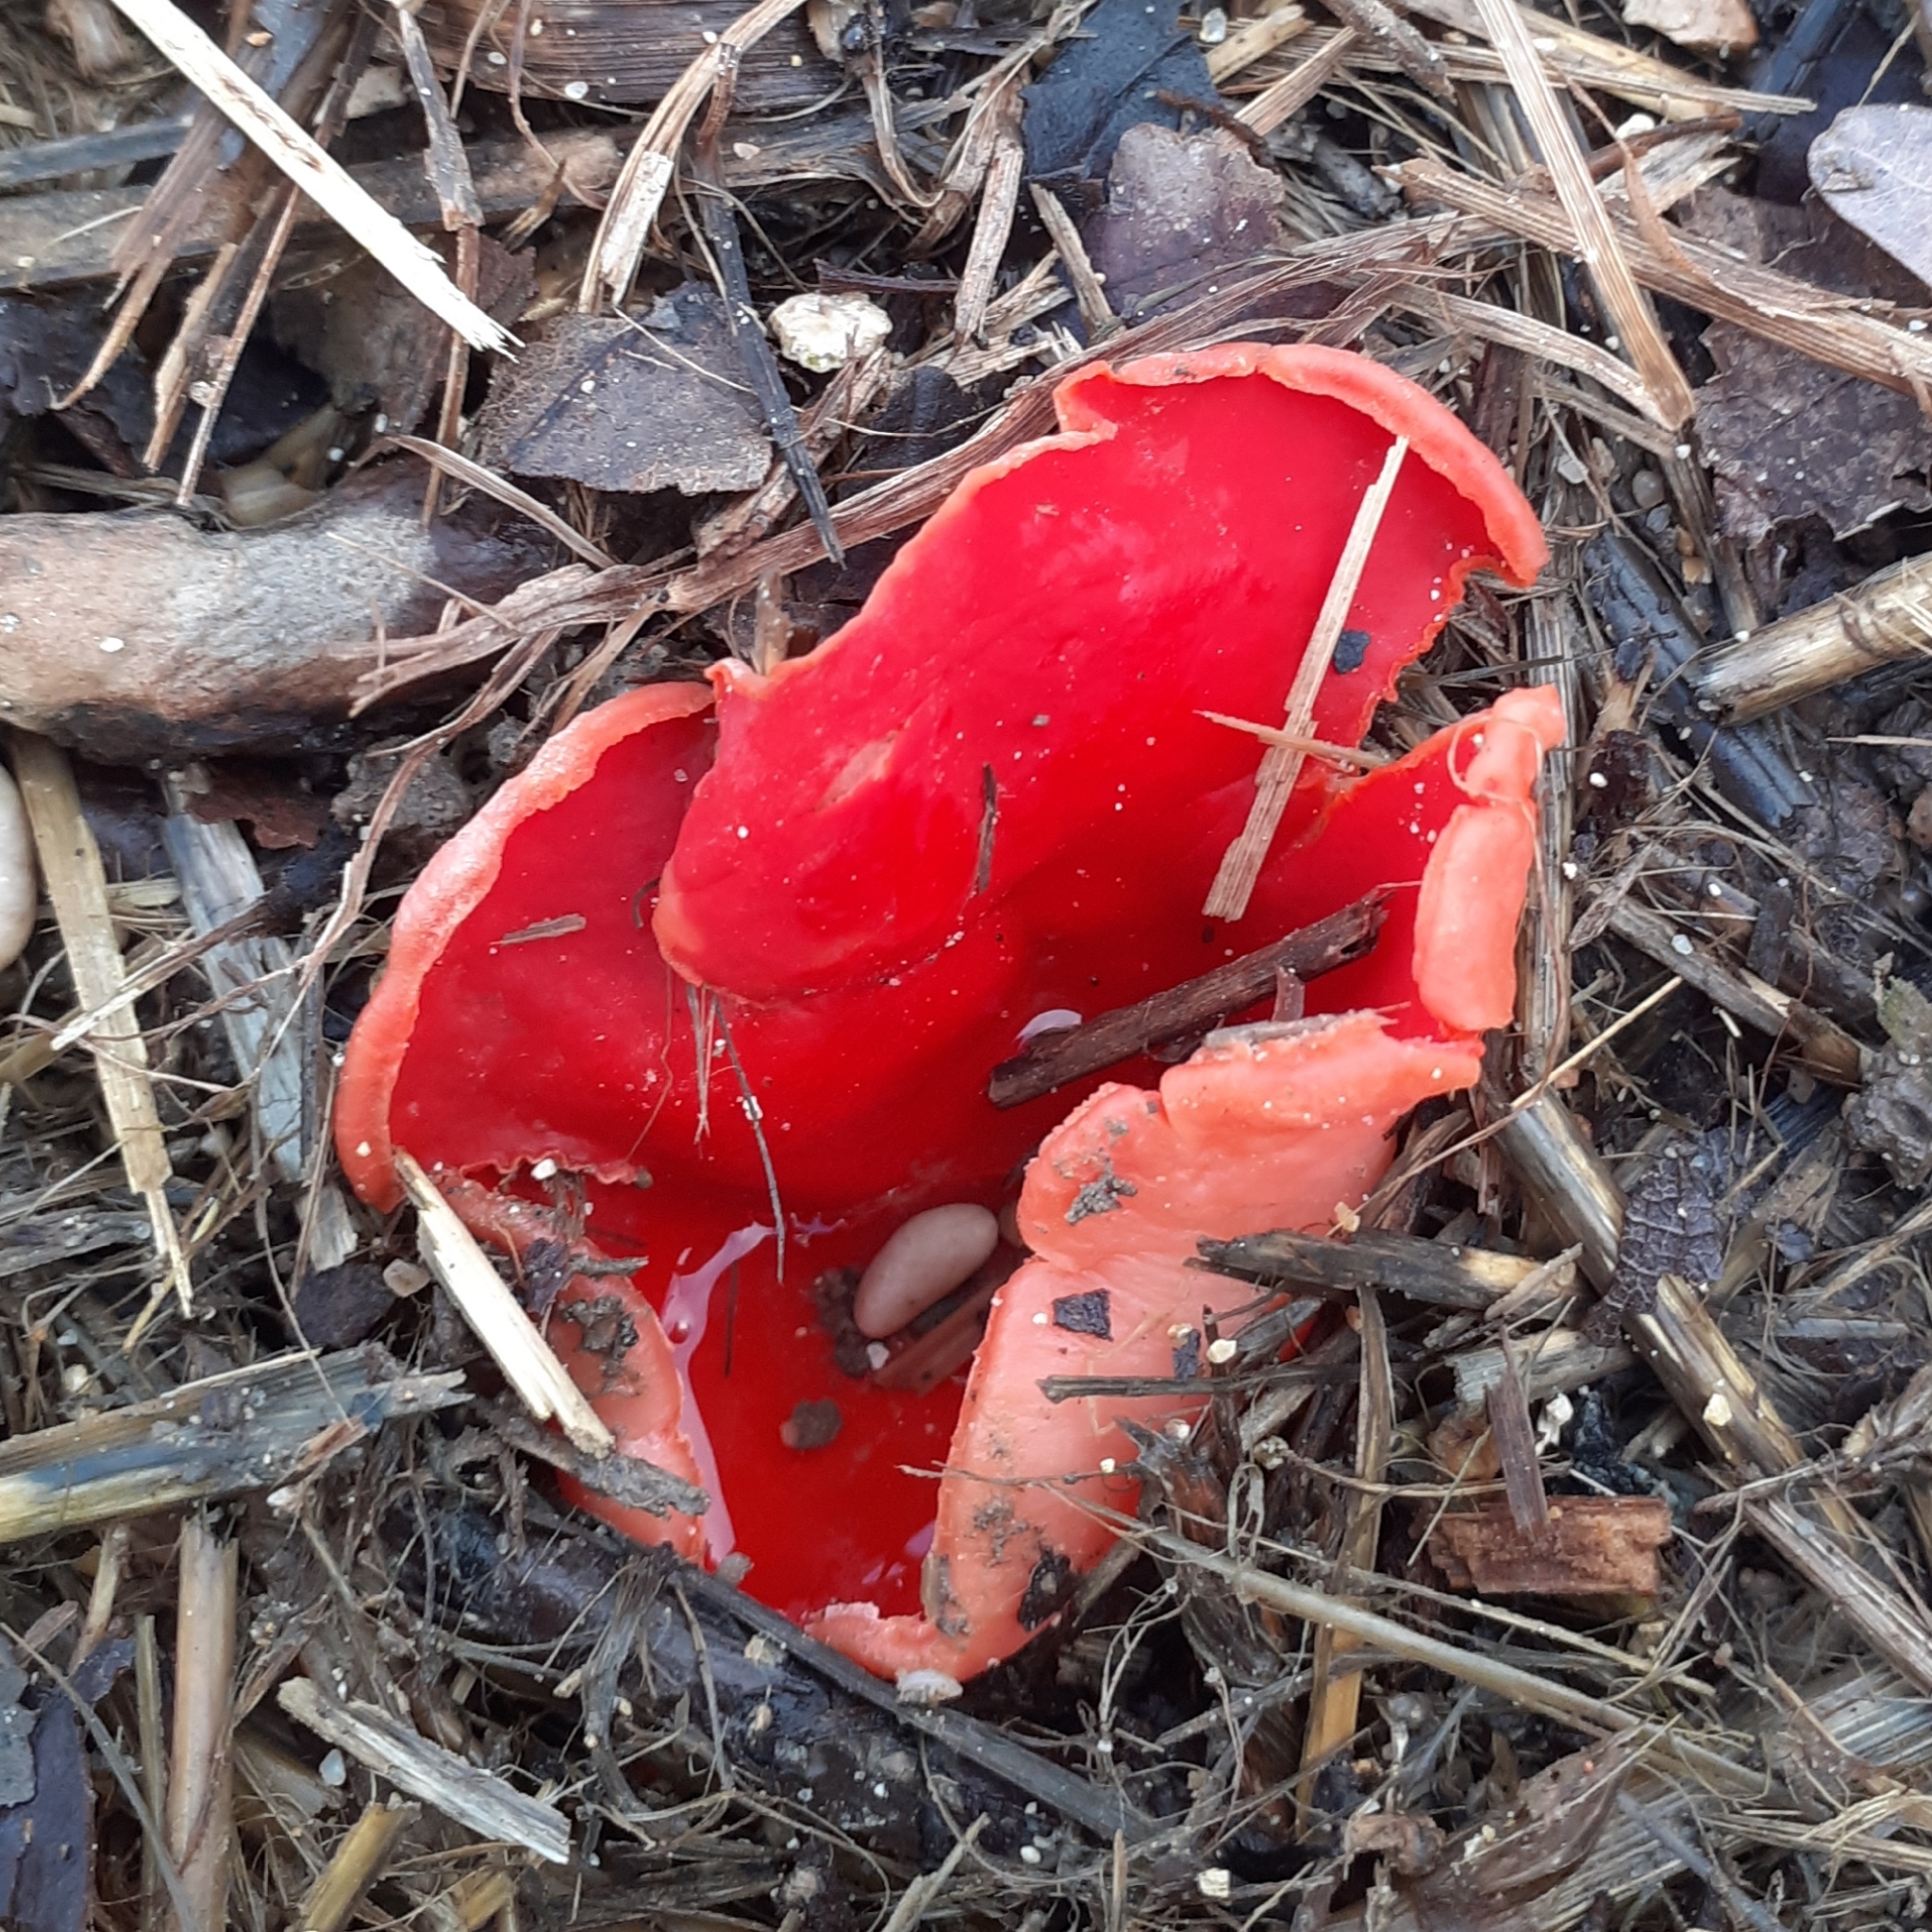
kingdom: Fungi
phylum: Ascomycota
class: Pezizomycetes
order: Pezizales
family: Sarcoscyphaceae
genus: Sarcoscypha
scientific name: Sarcoscypha
